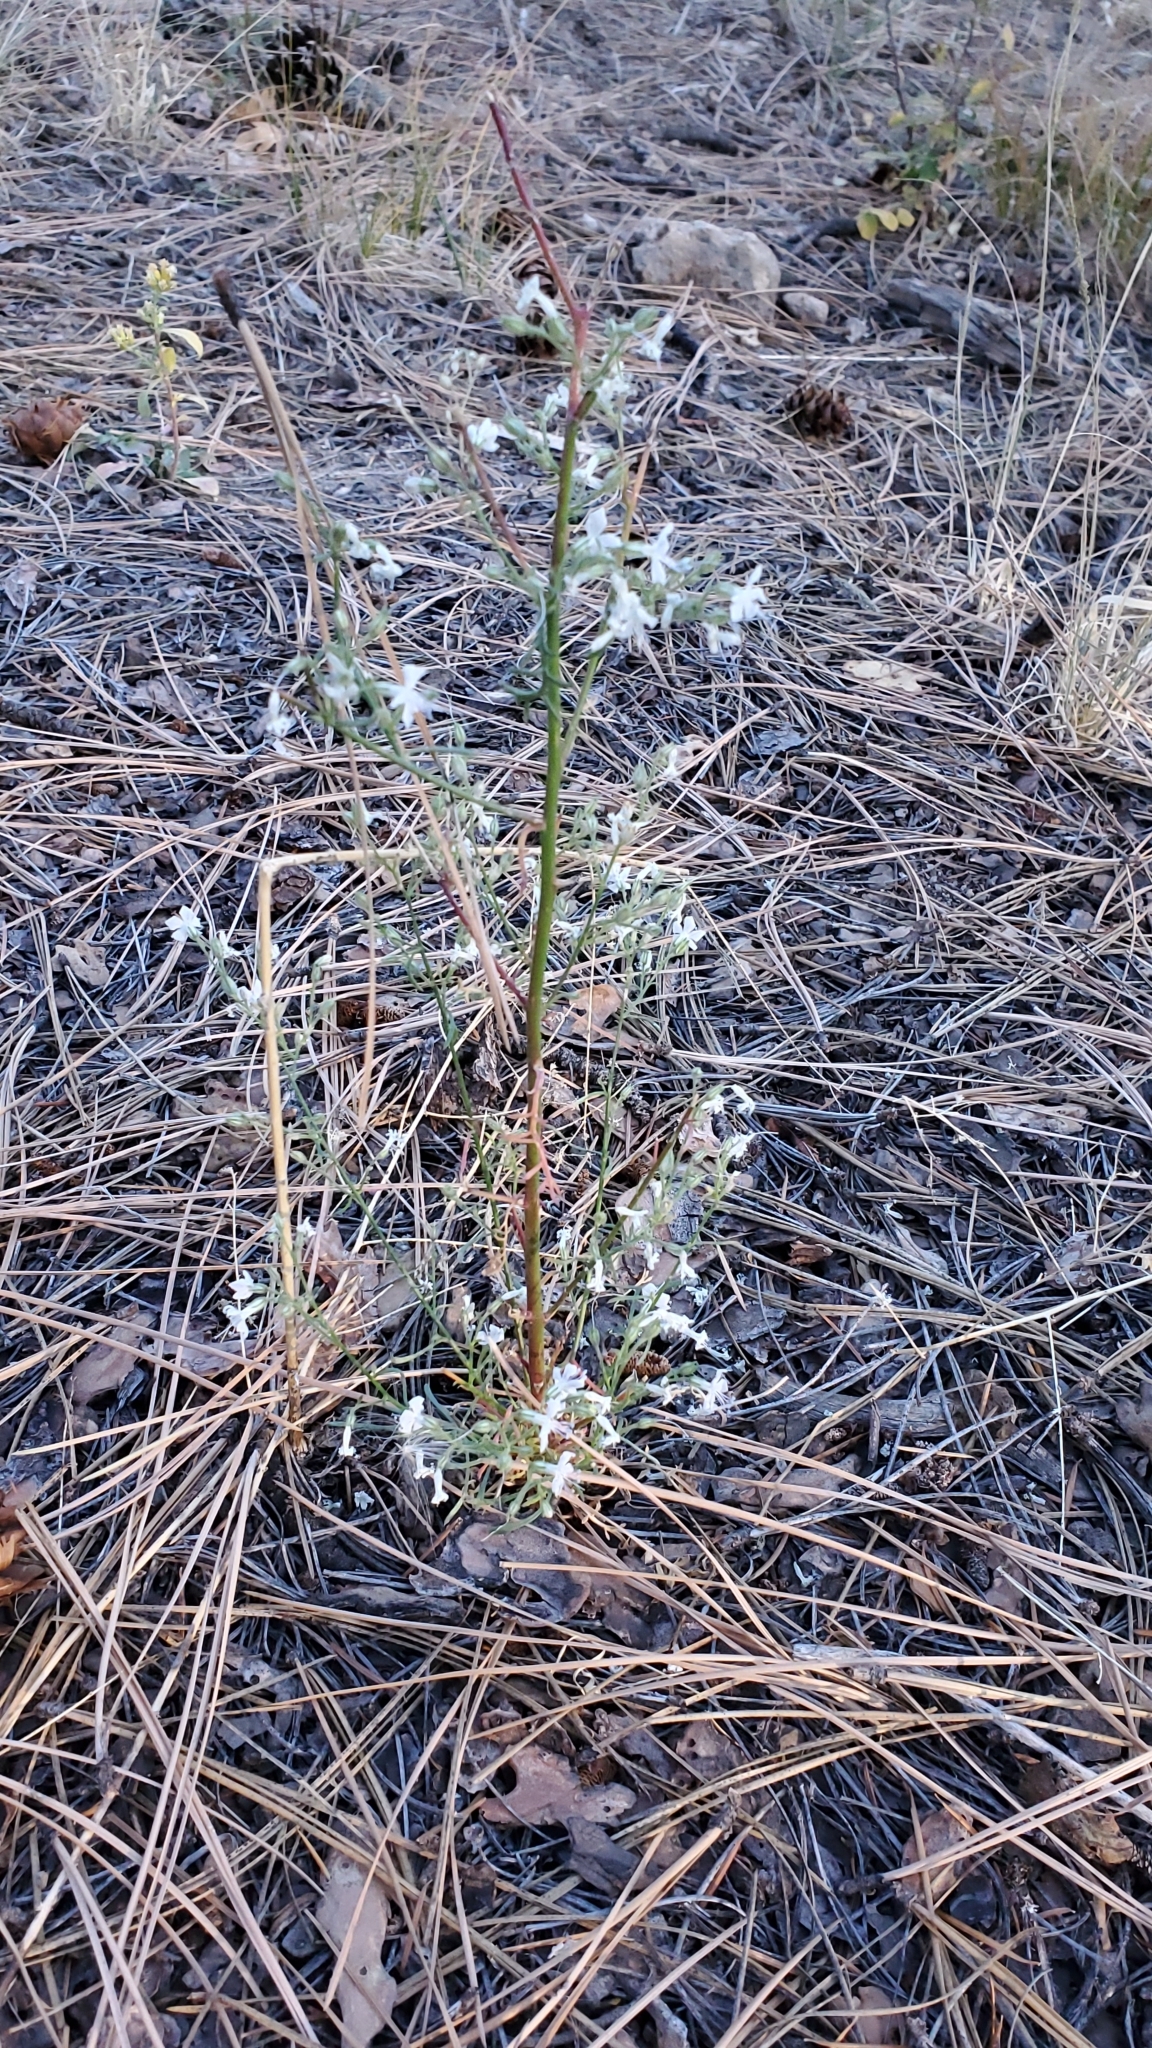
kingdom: Plantae
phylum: Tracheophyta
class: Magnoliopsida
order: Ericales
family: Polemoniaceae
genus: Aliciella
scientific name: Aliciella pinnatifida
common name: Sticky gilia
